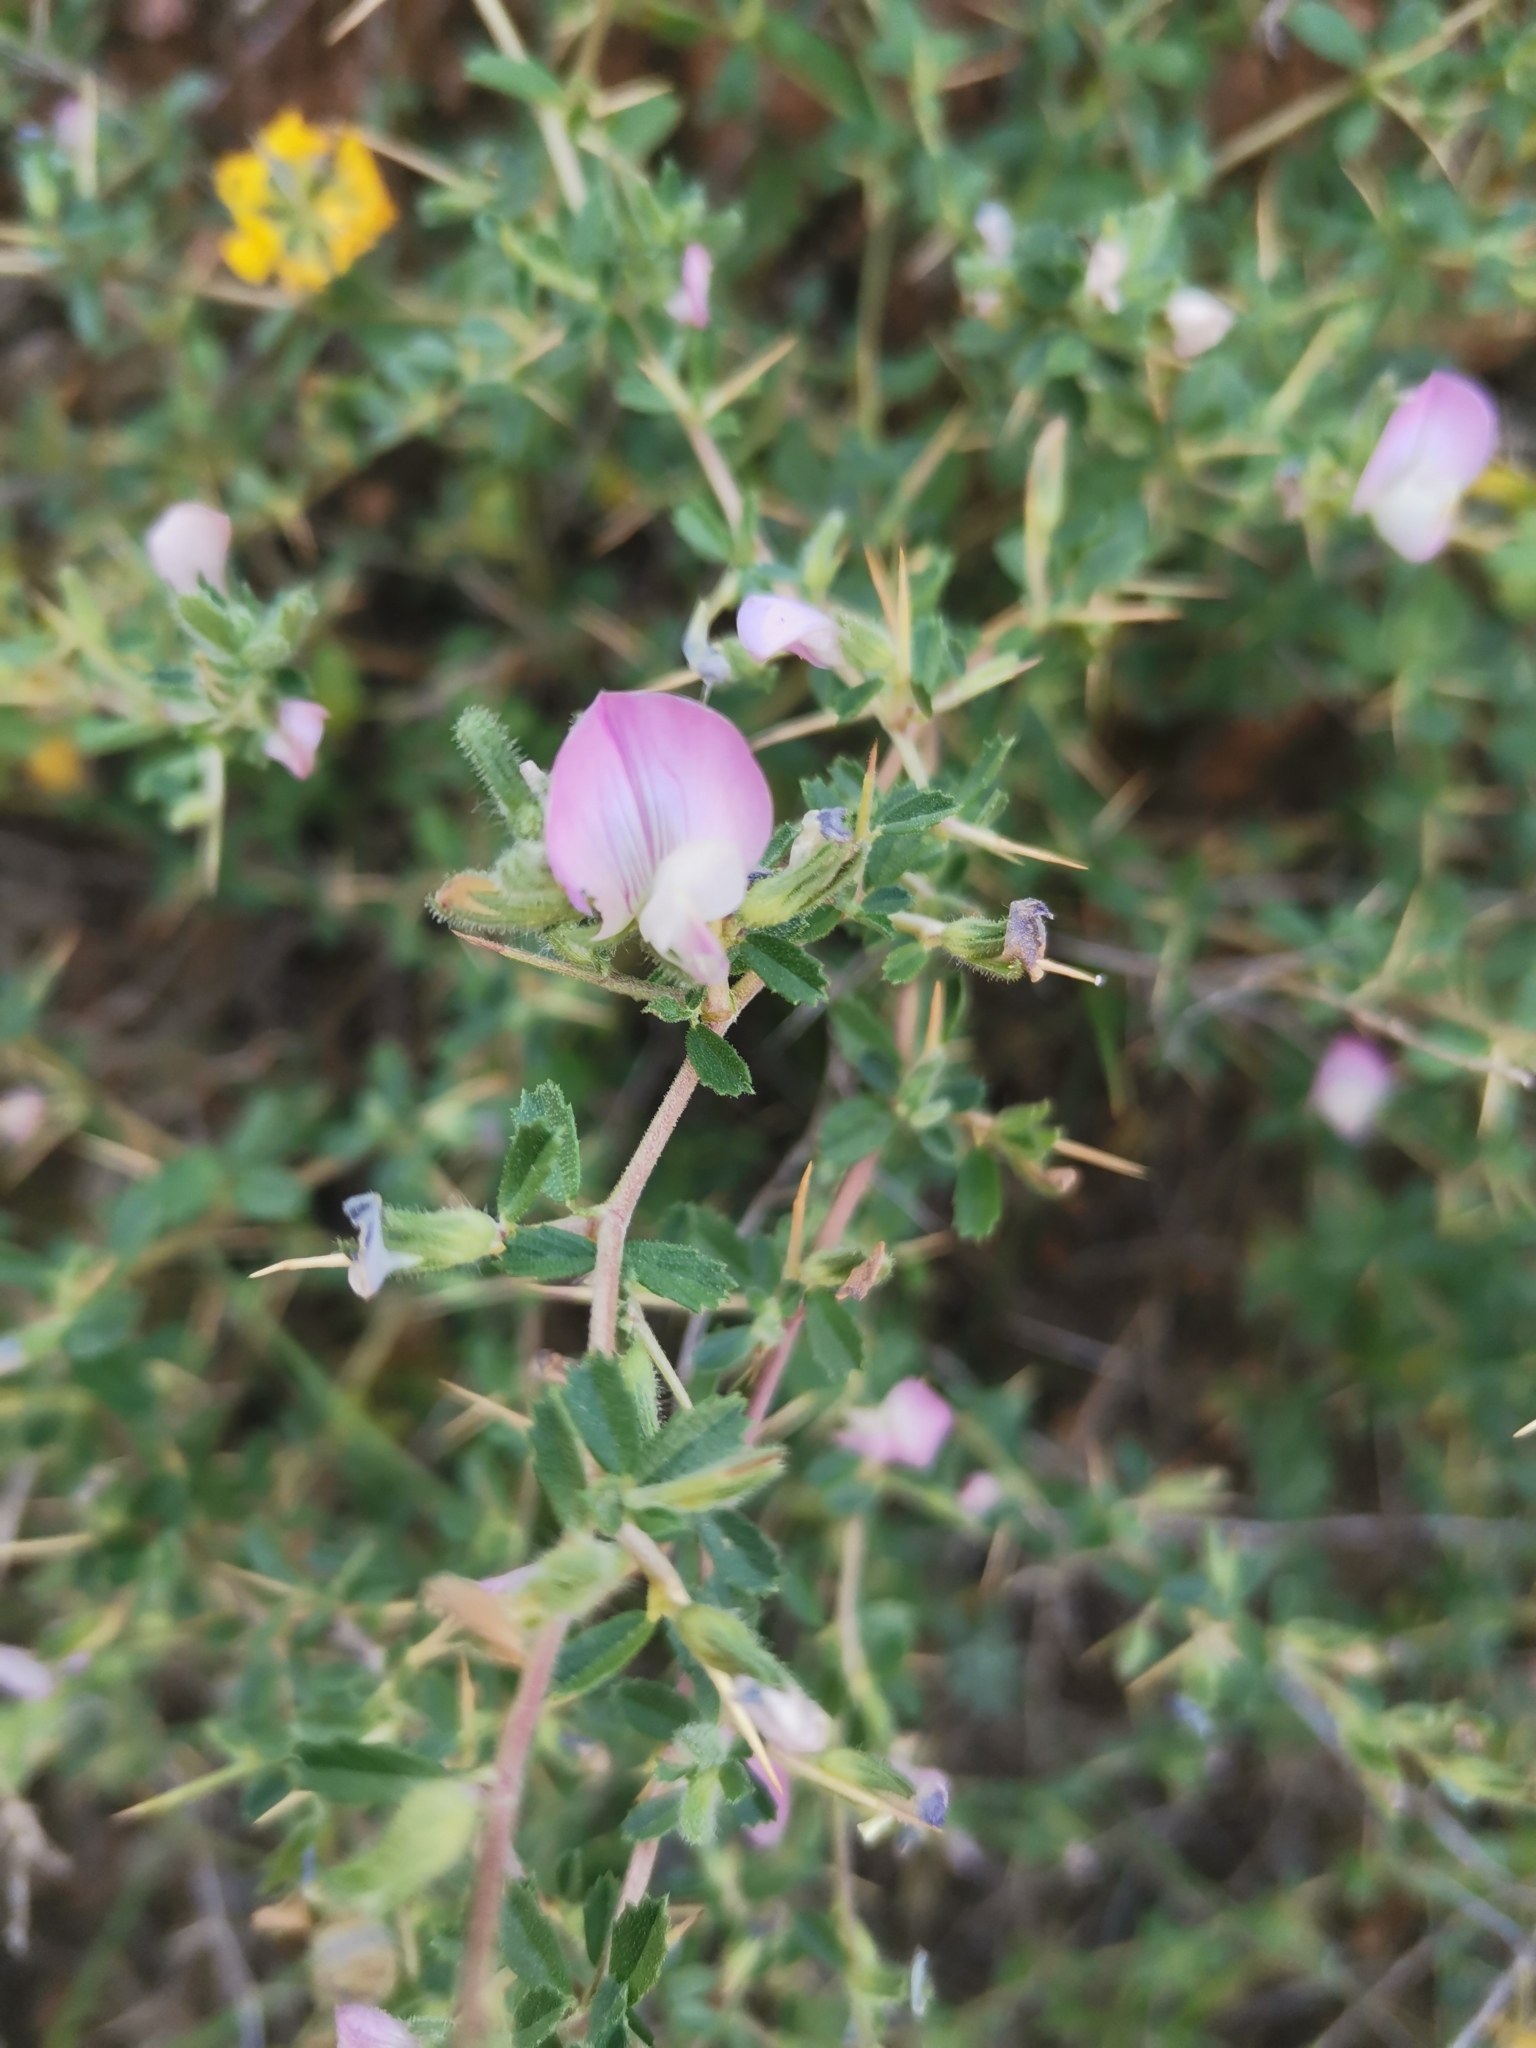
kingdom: Plantae
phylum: Tracheophyta
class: Magnoliopsida
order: Fabales
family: Fabaceae
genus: Ononis
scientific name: Ononis spinosa
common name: Spiny restharrow
